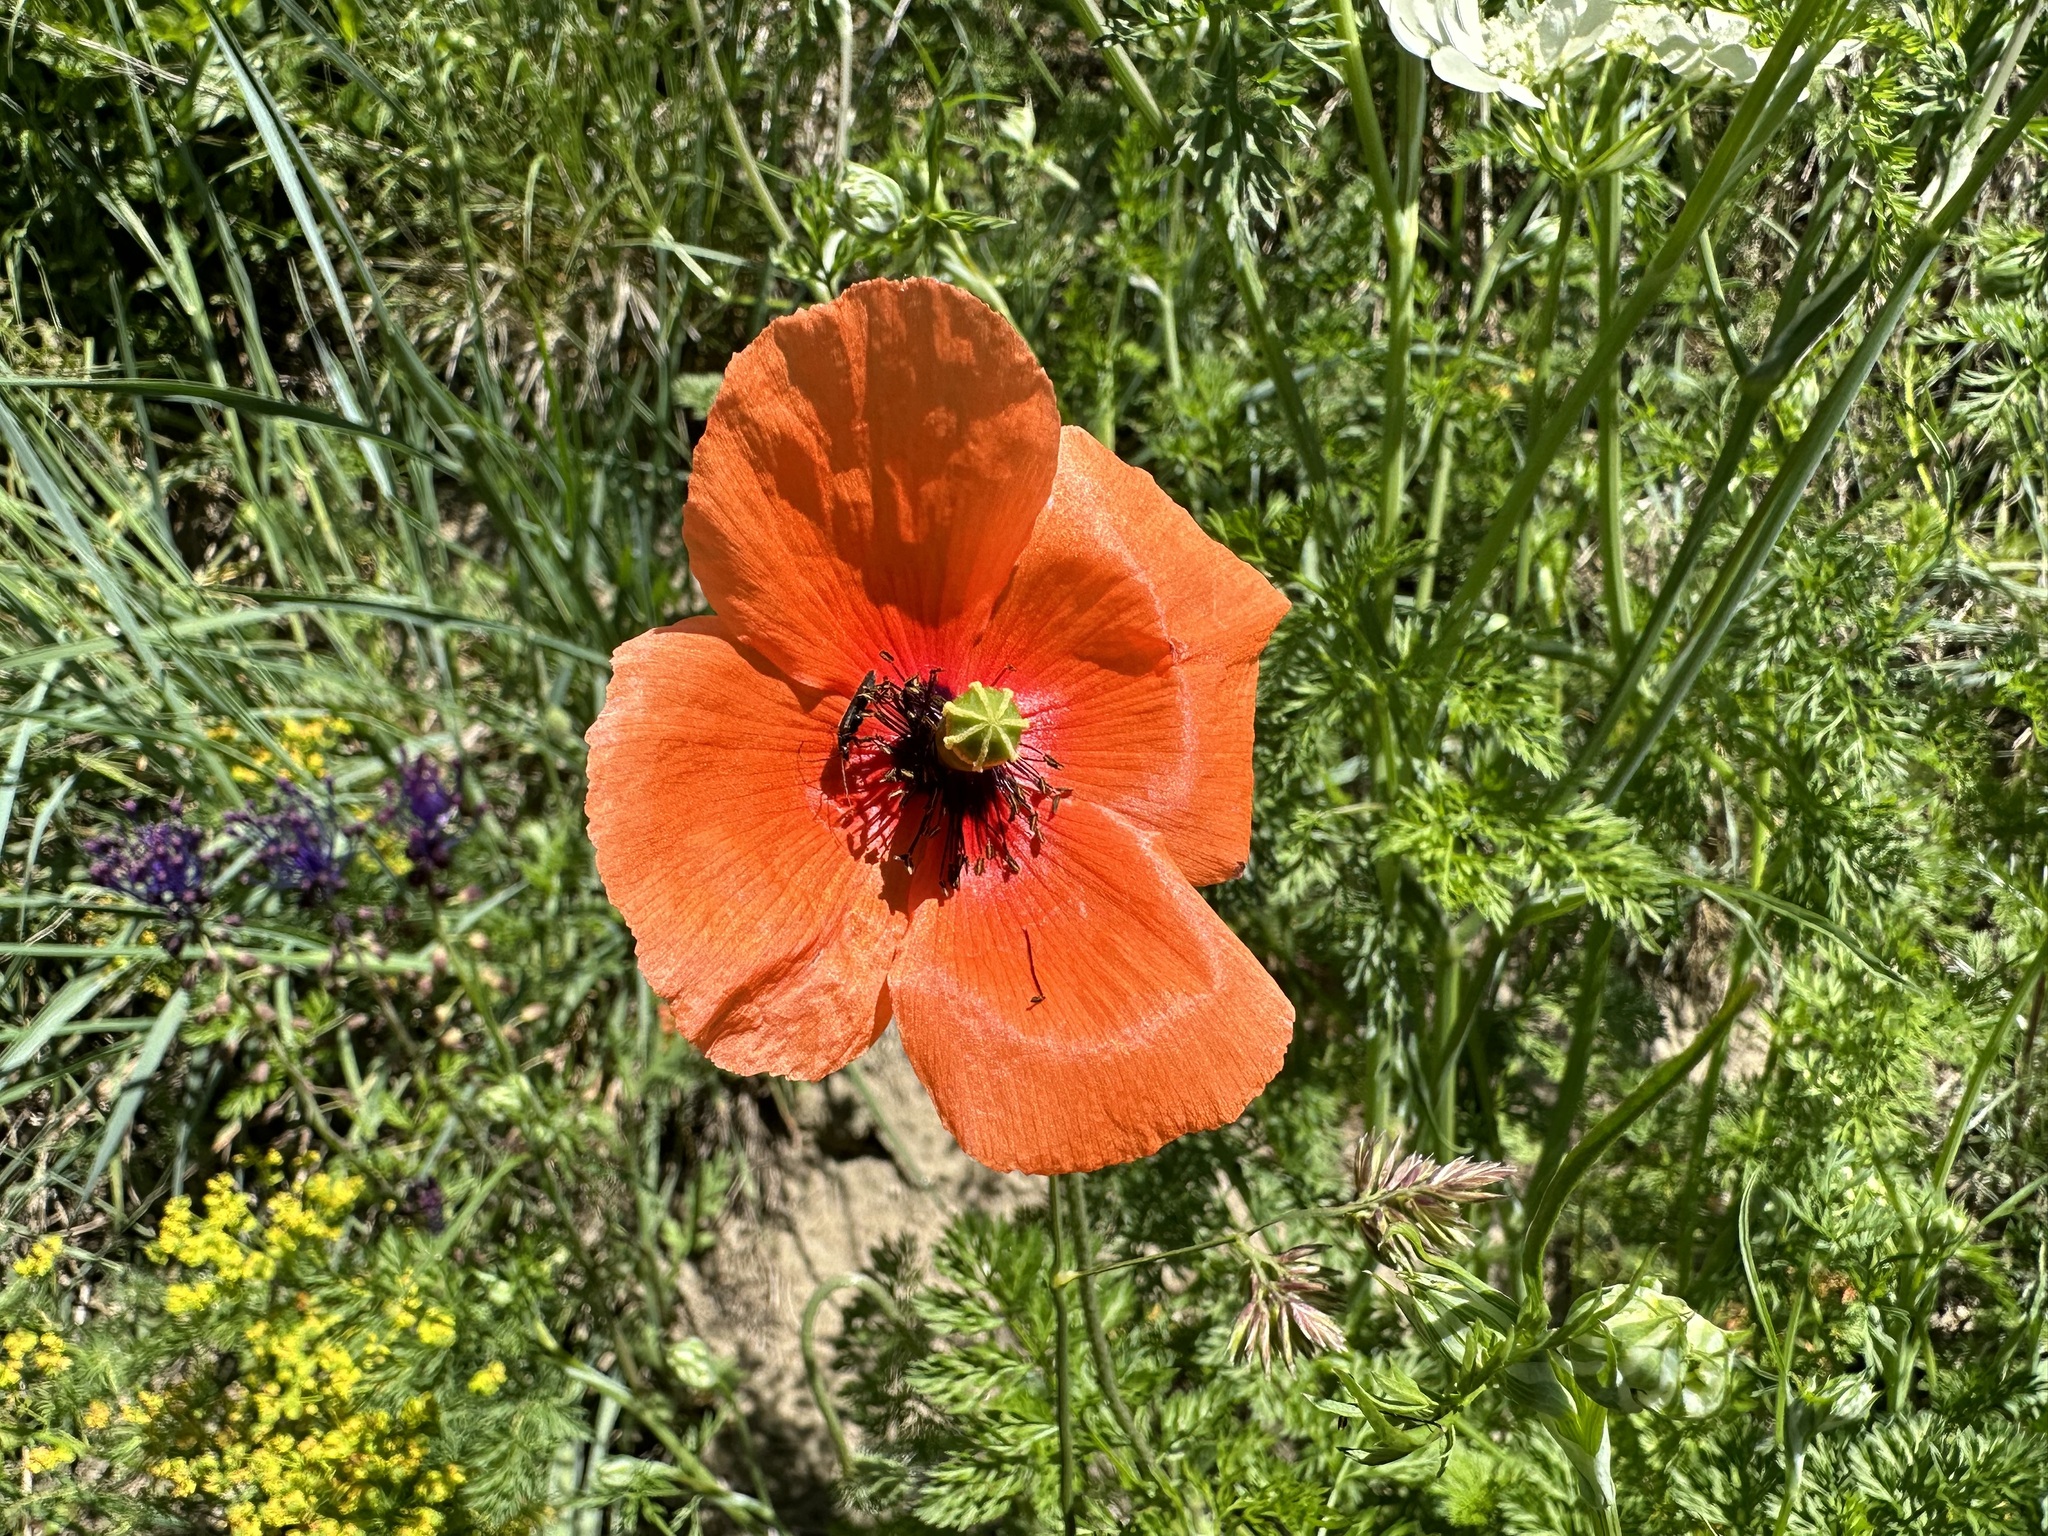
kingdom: Plantae
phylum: Tracheophyta
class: Magnoliopsida
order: Ranunculales
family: Papaveraceae
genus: Papaver
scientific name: Papaver dubium
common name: Long-headed poppy
